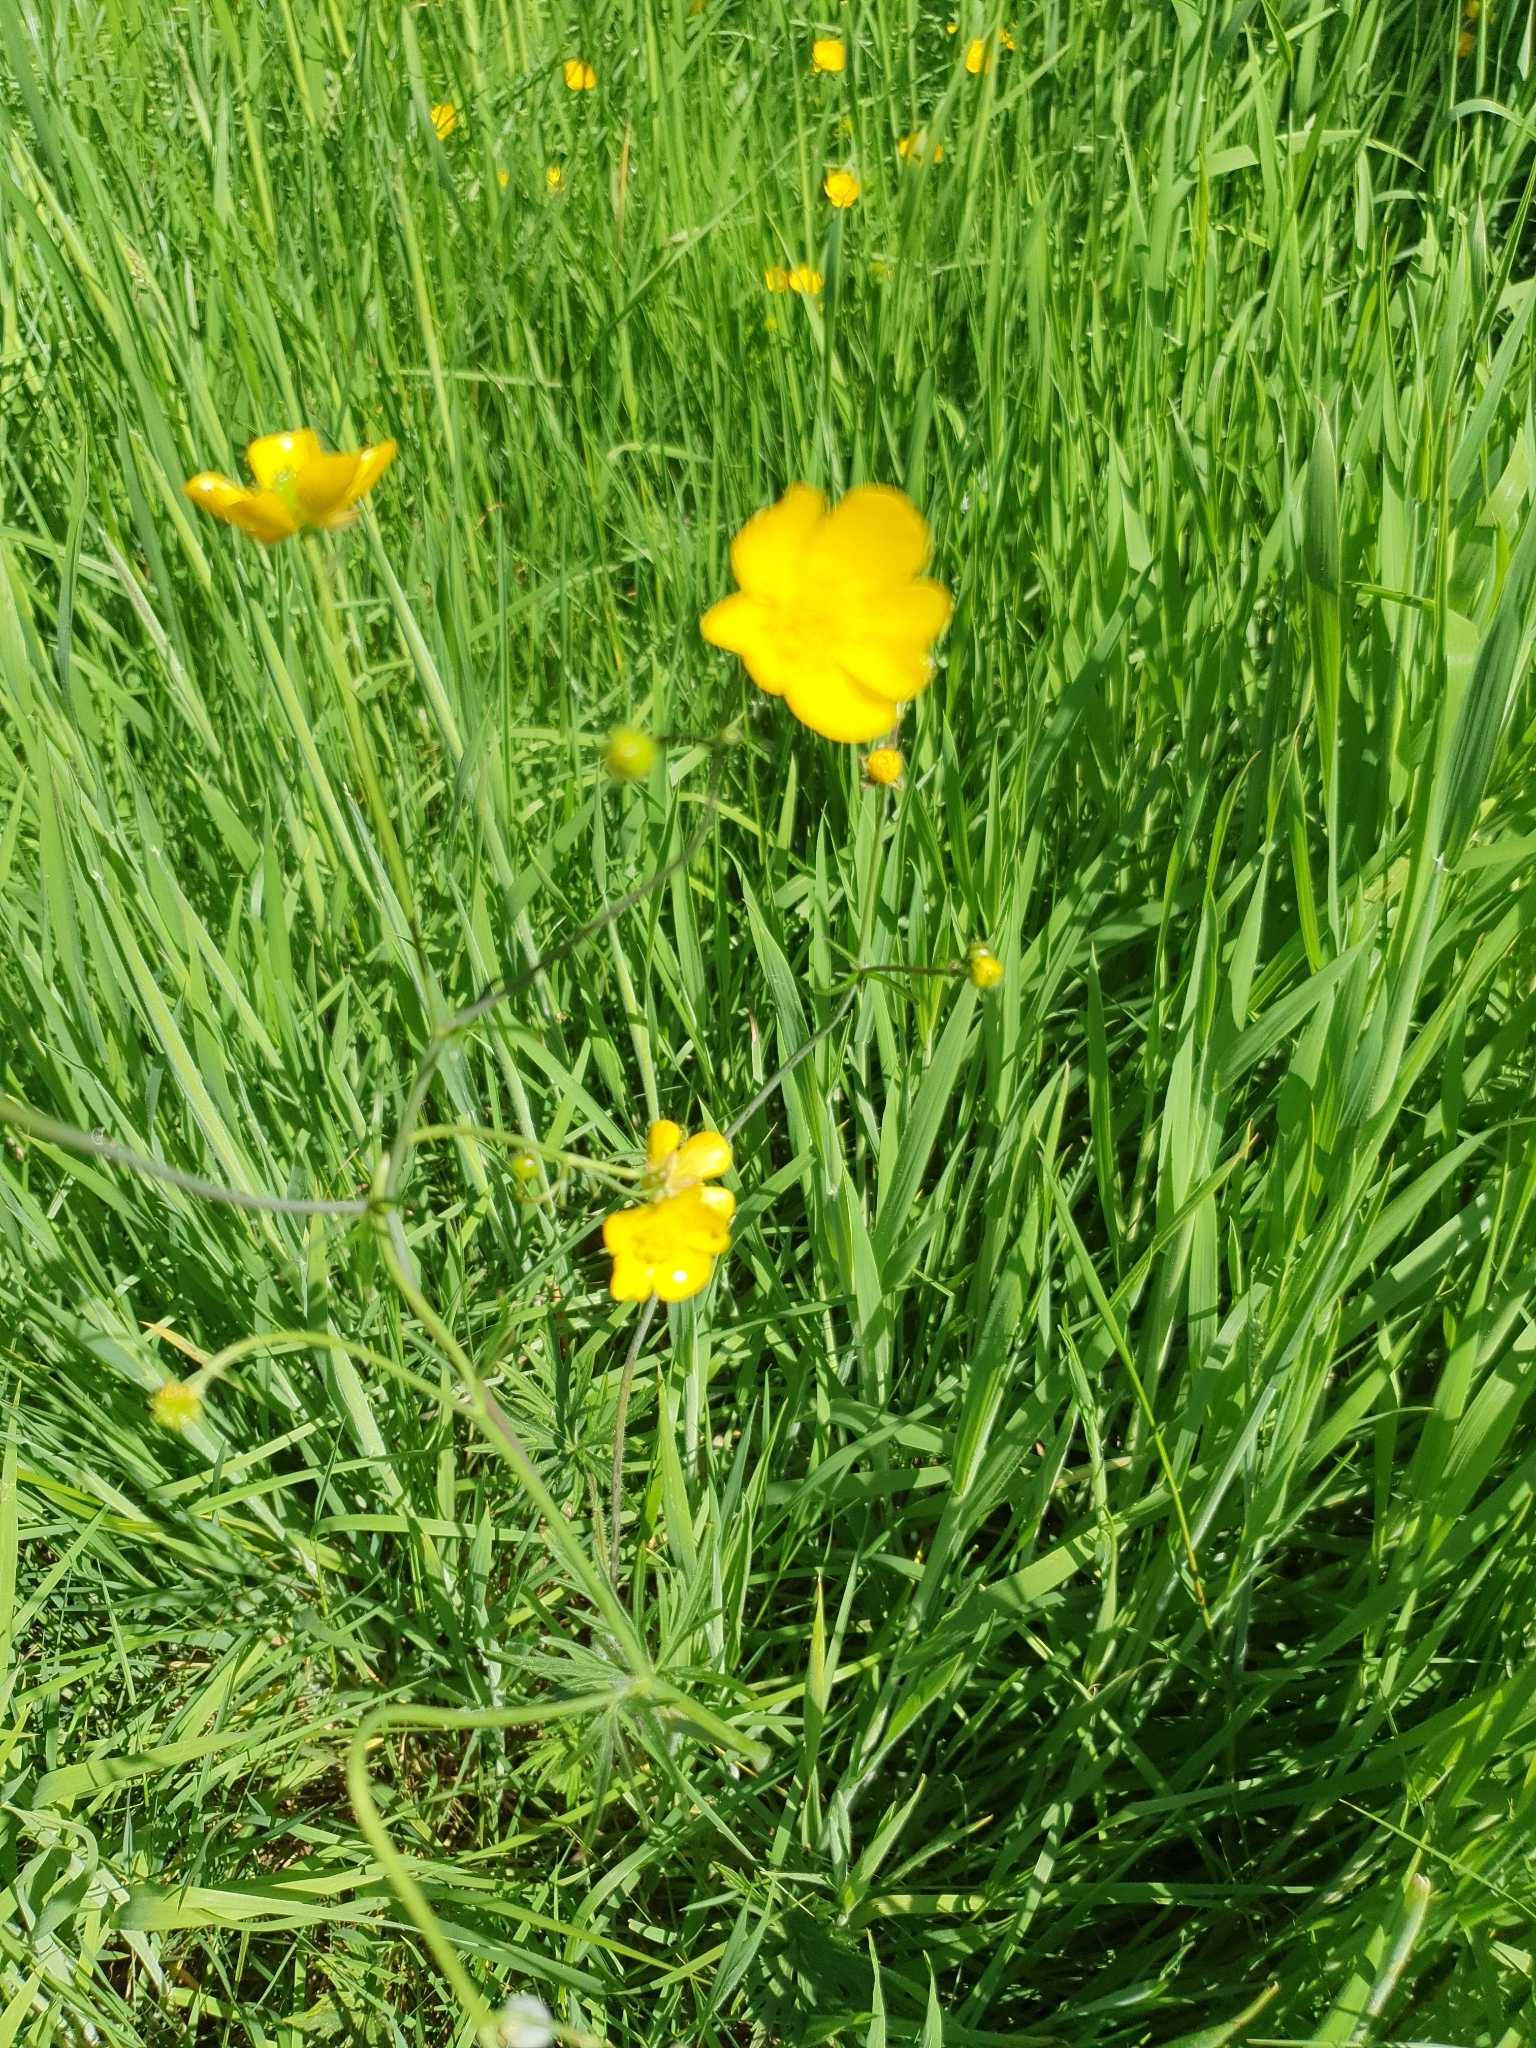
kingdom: Plantae
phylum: Tracheophyta
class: Magnoliopsida
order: Ranunculales
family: Ranunculaceae
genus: Ranunculus
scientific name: Ranunculus acris
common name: Meadow buttercup
